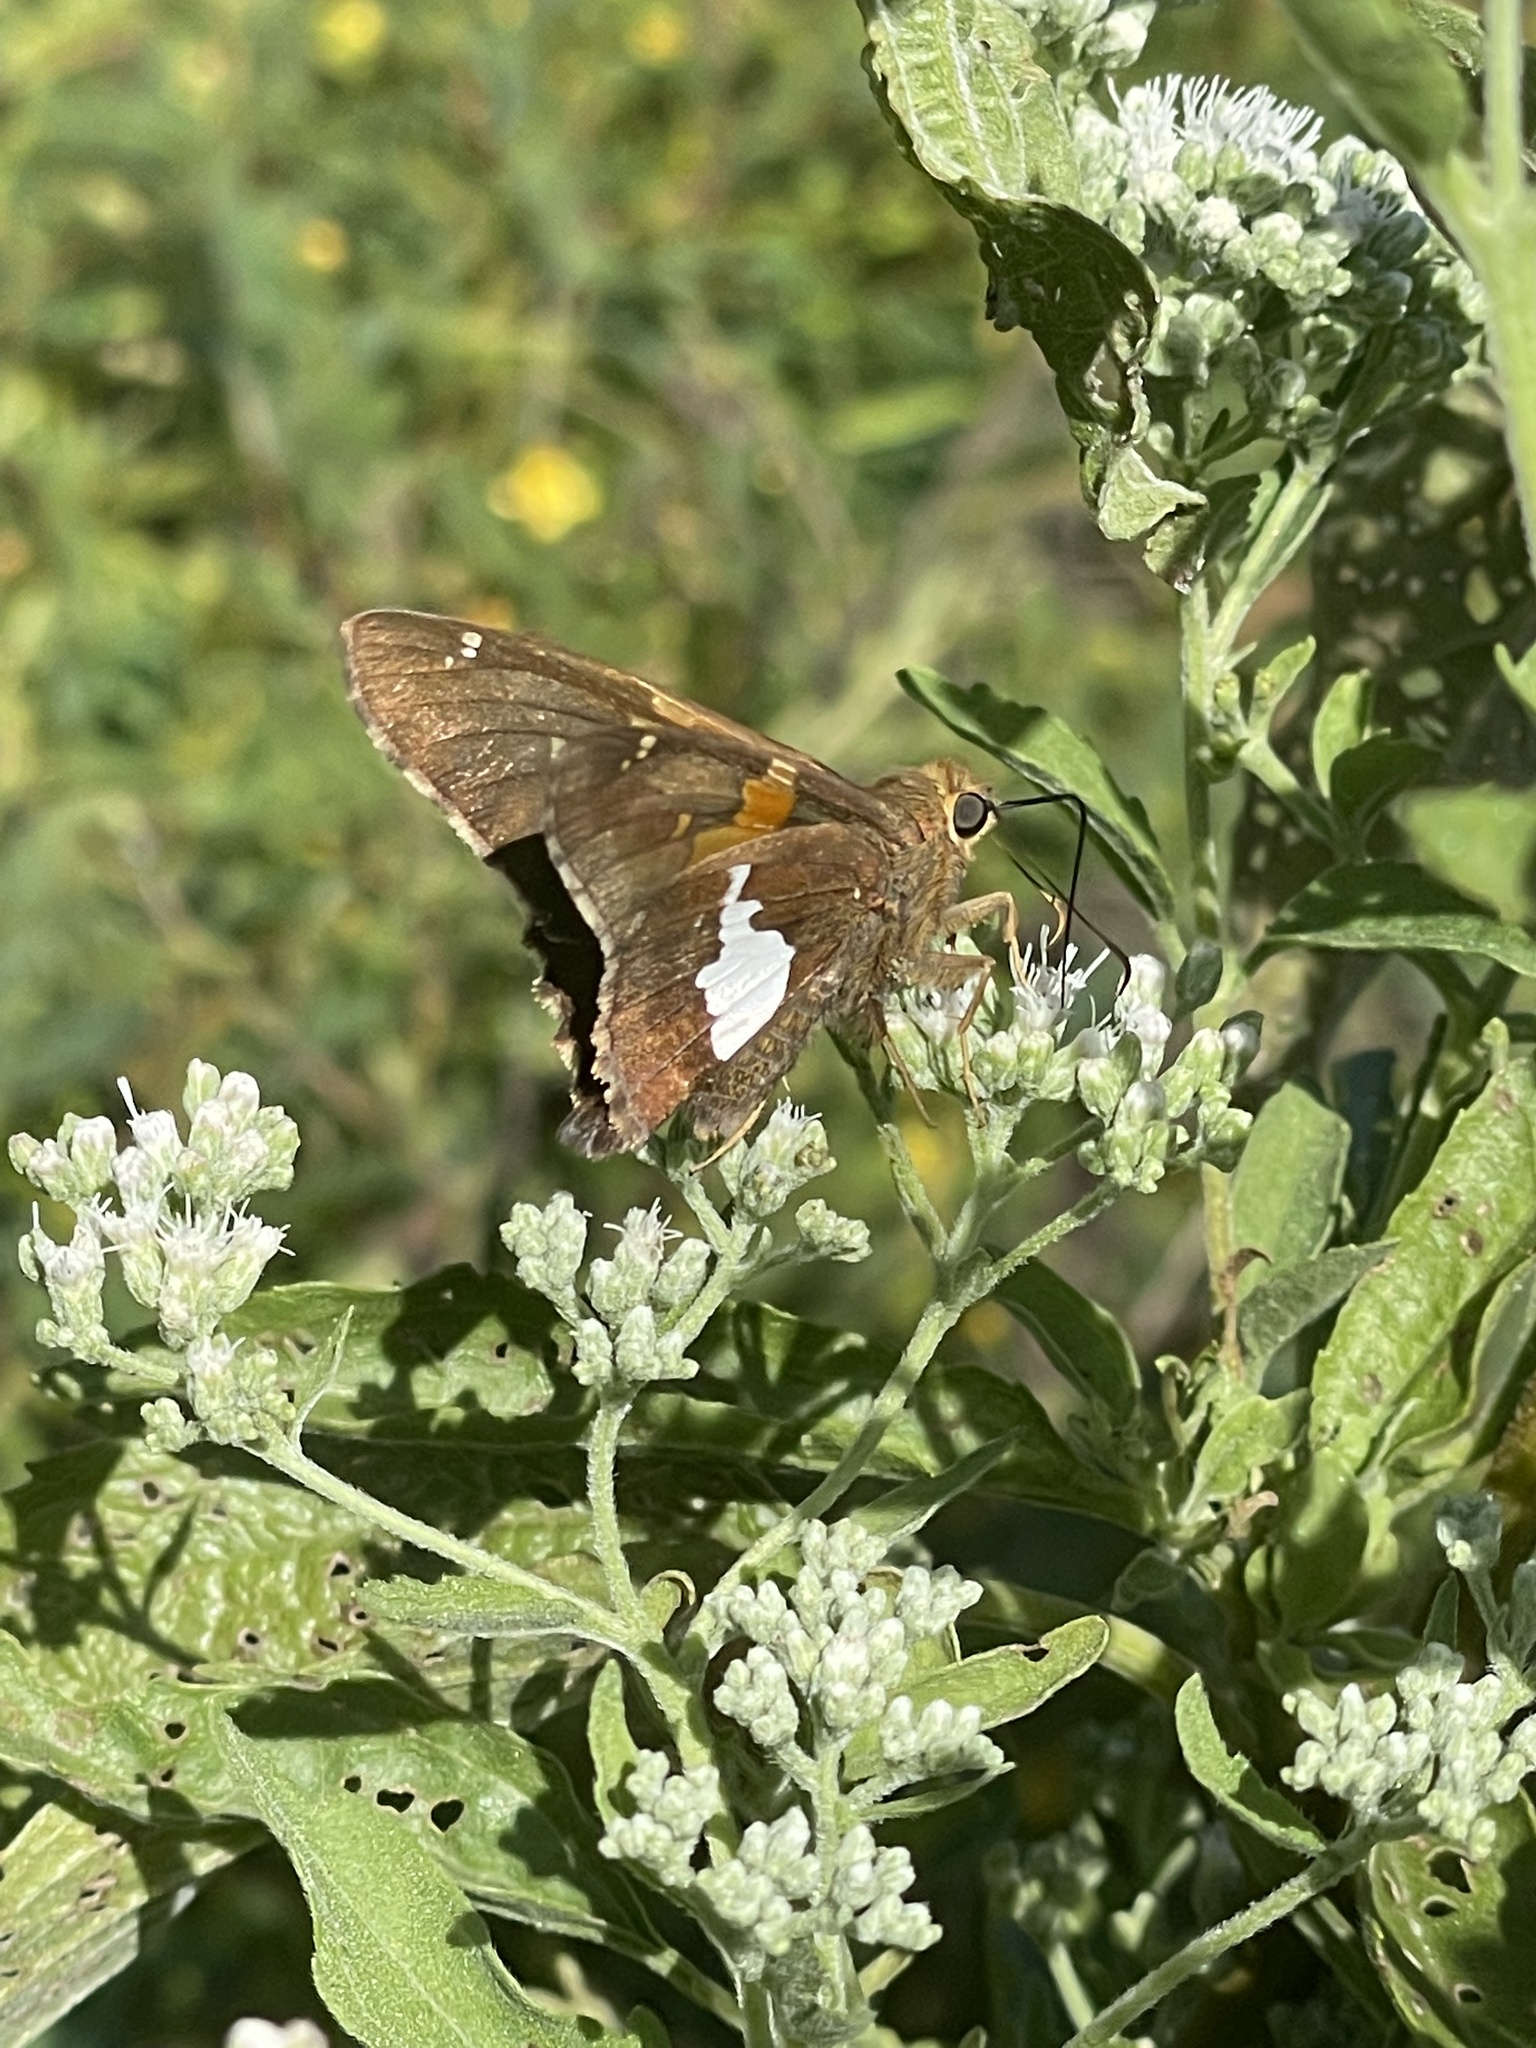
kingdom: Animalia
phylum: Arthropoda
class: Insecta
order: Lepidoptera
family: Hesperiidae
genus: Epargyreus
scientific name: Epargyreus clarus
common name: Silver-spotted skipper
